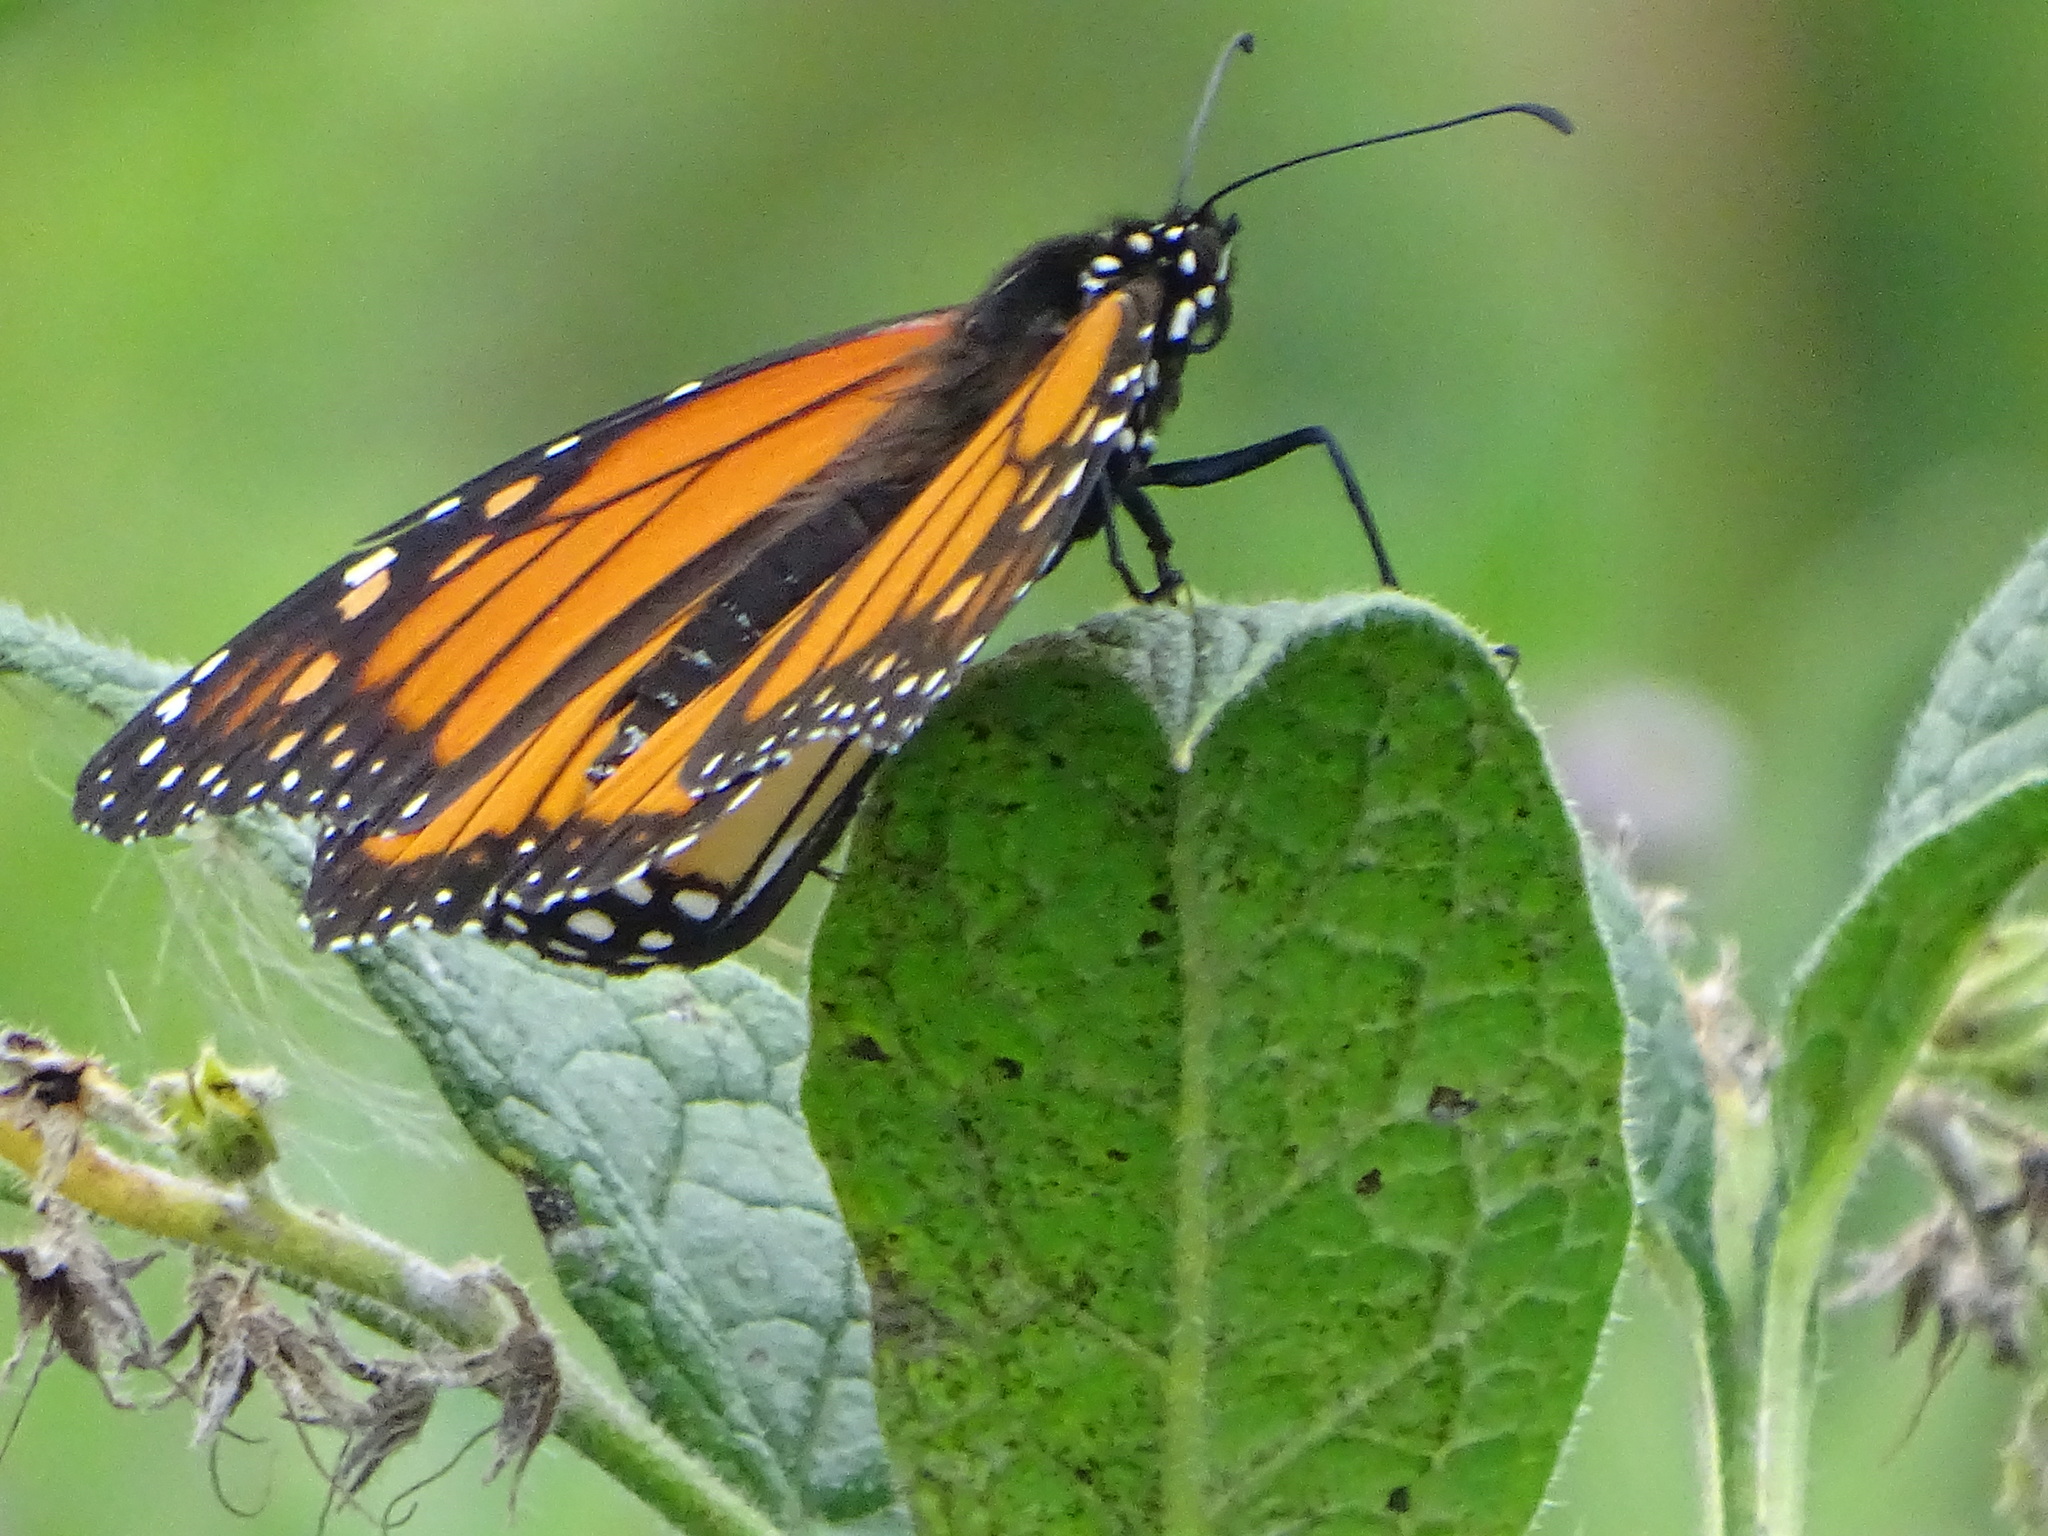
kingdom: Animalia
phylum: Arthropoda
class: Insecta
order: Lepidoptera
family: Nymphalidae
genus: Danaus
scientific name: Danaus plexippus
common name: Monarch
